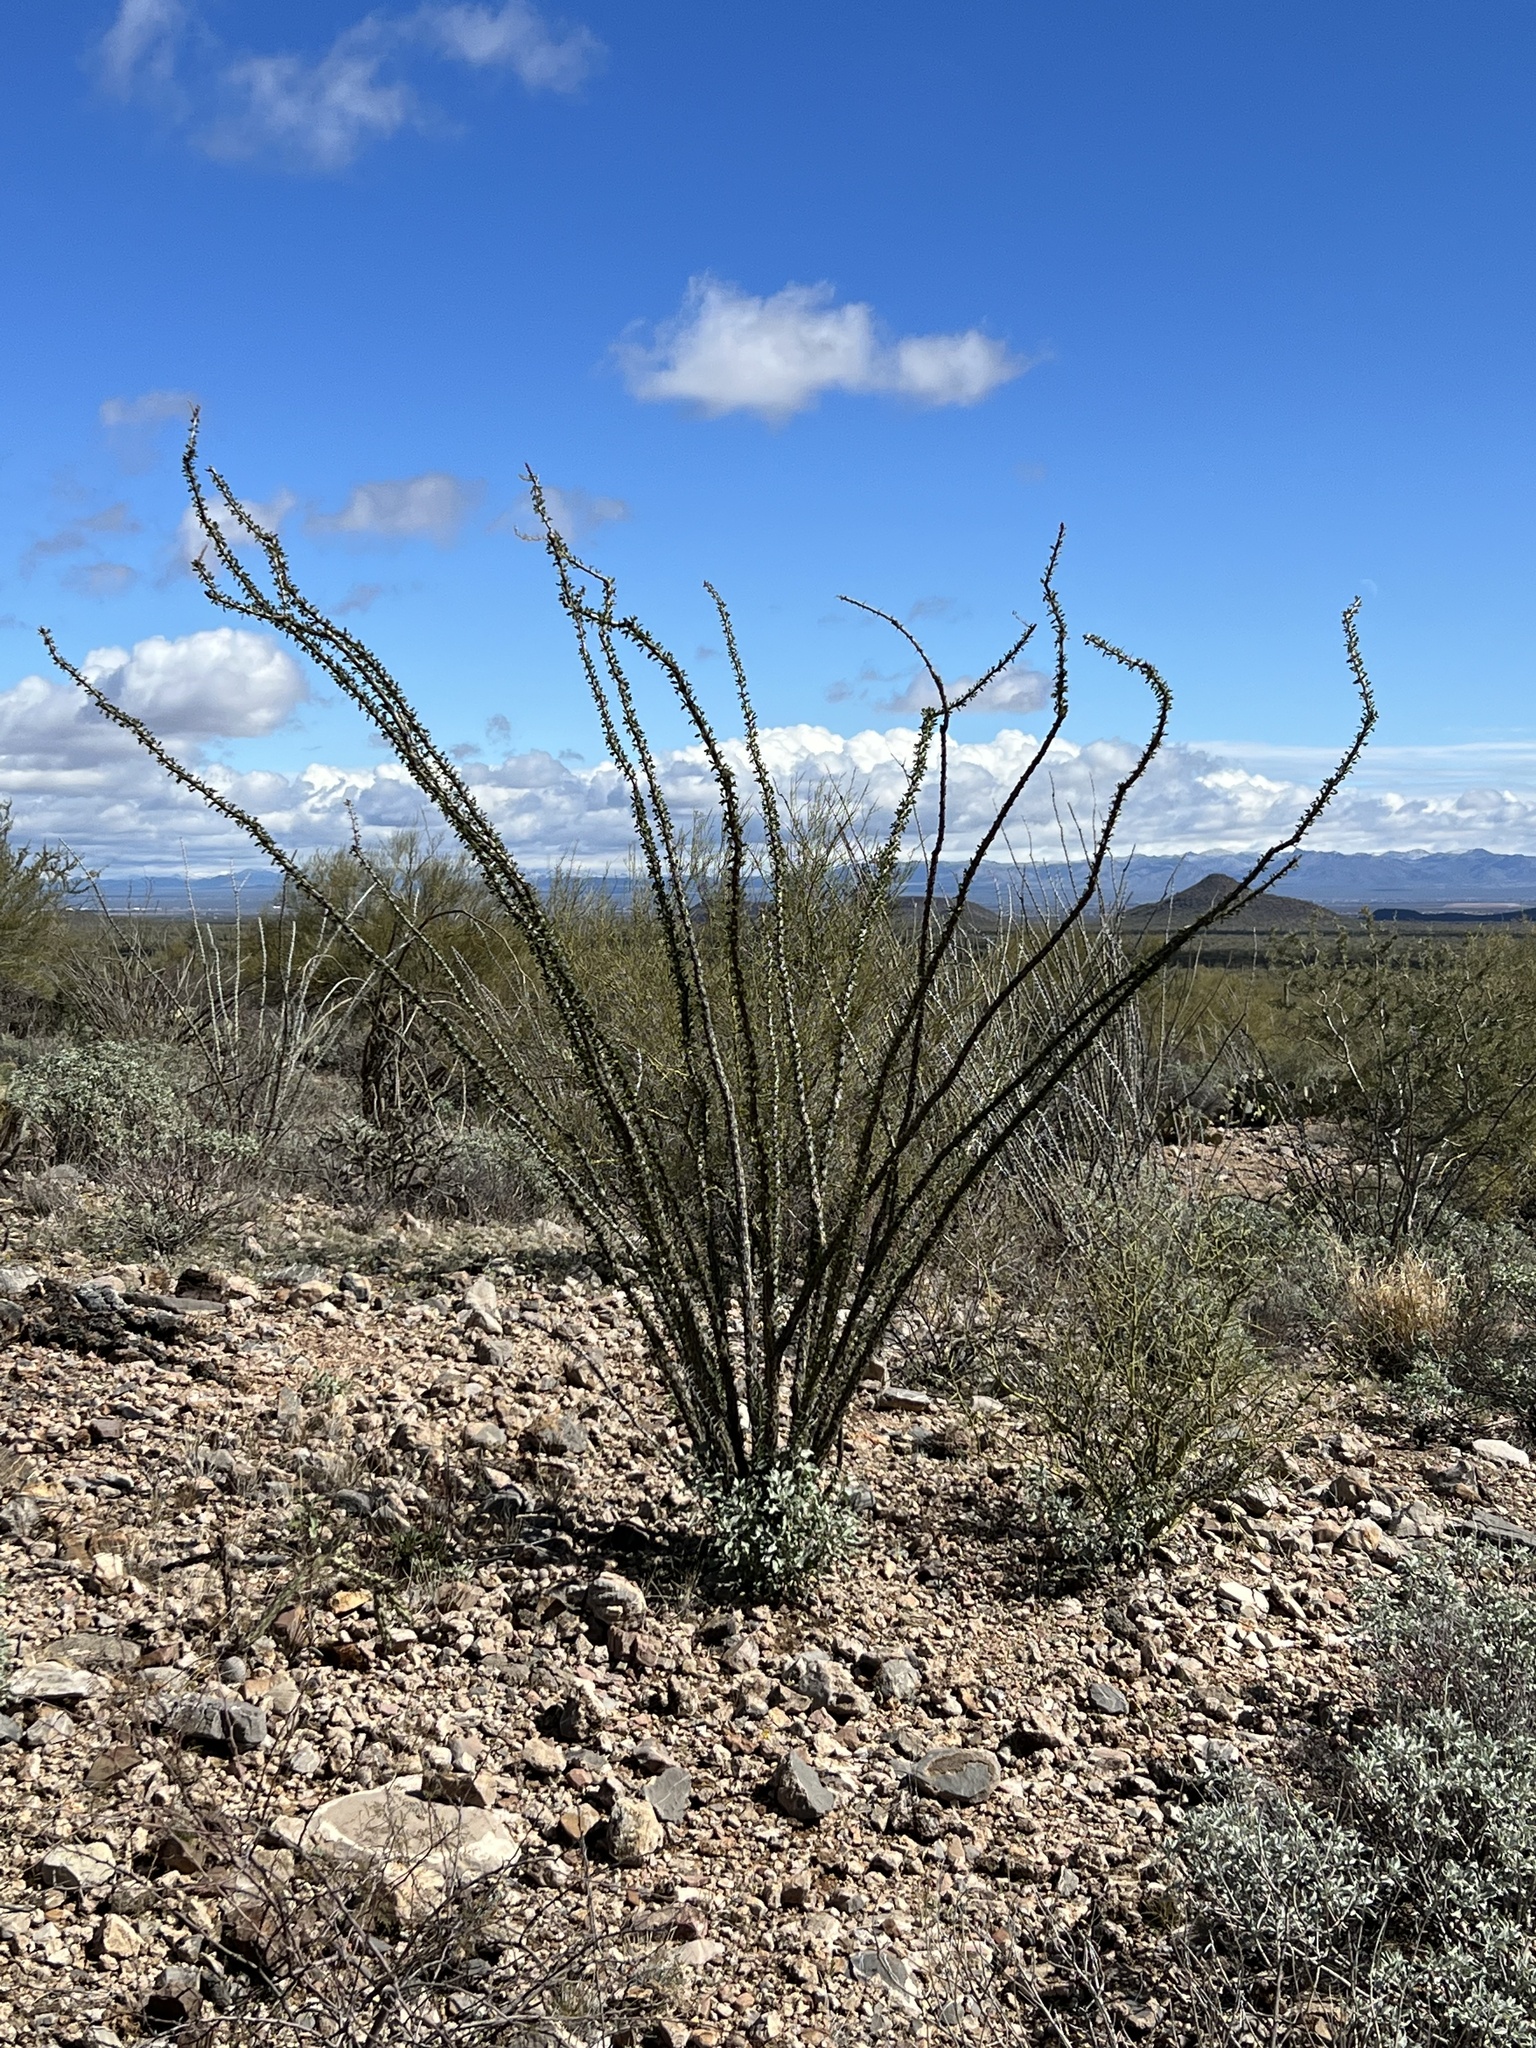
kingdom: Plantae
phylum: Tracheophyta
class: Magnoliopsida
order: Ericales
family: Fouquieriaceae
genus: Fouquieria
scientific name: Fouquieria splendens
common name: Vine-cactus
